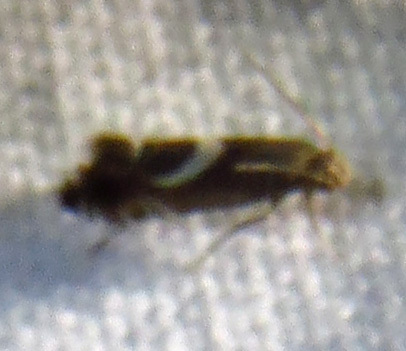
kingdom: Animalia
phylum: Arthropoda
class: Insecta
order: Lepidoptera
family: Glyphipterigidae
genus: Glyphipterix
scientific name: Glyphipterix Diploschizia impigritella
